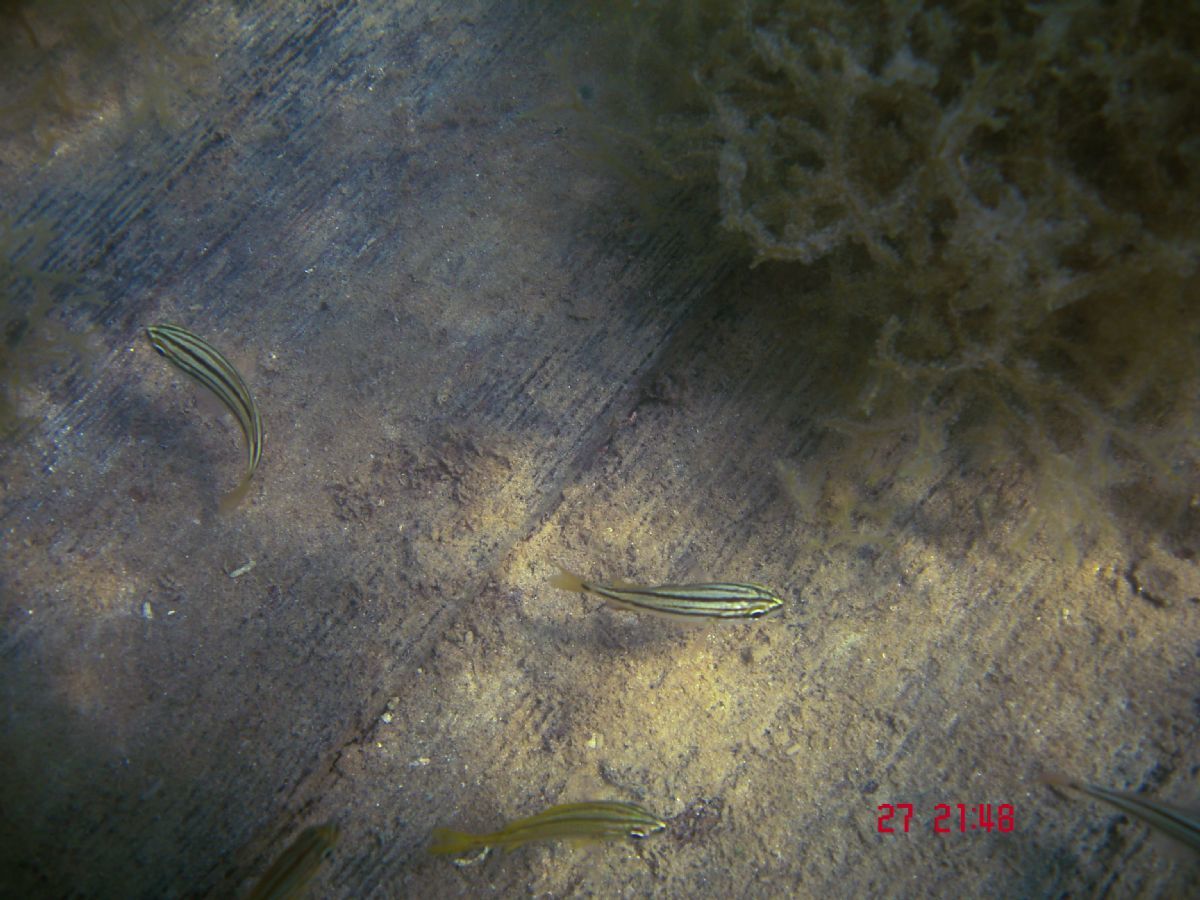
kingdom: Animalia
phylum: Chordata
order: Perciformes
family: Haemulidae
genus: Haemulon
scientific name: Haemulon chrysargyreum
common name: Smallmouth grunt
